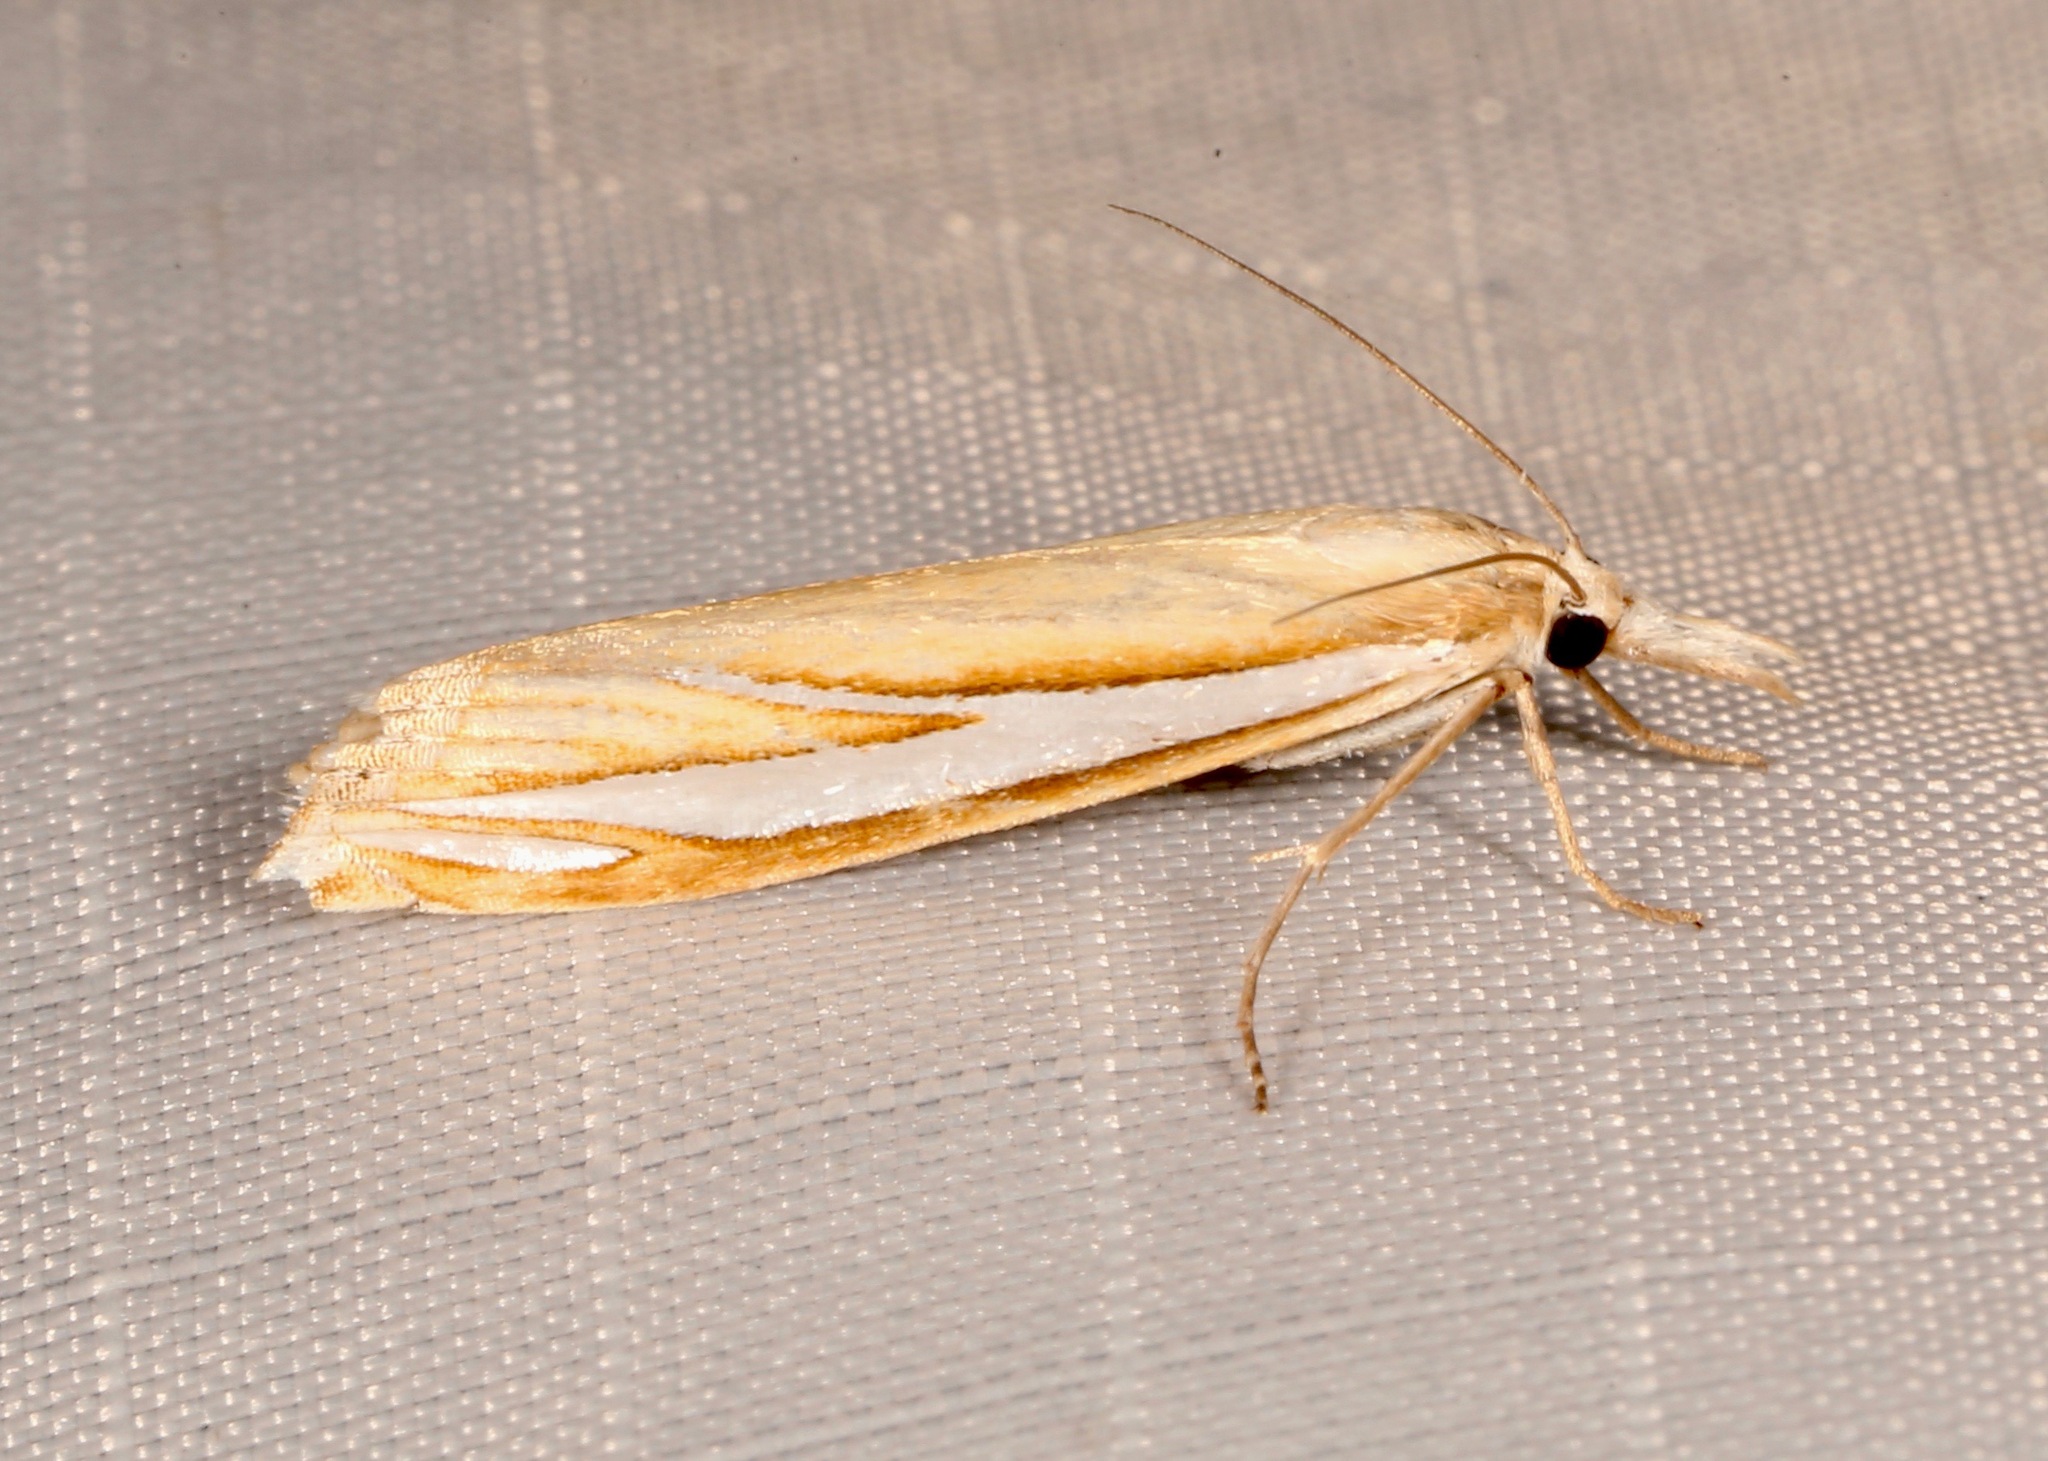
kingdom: Animalia
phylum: Arthropoda
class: Insecta
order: Lepidoptera
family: Crambidae
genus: Crambus
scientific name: Crambus satrapellus
